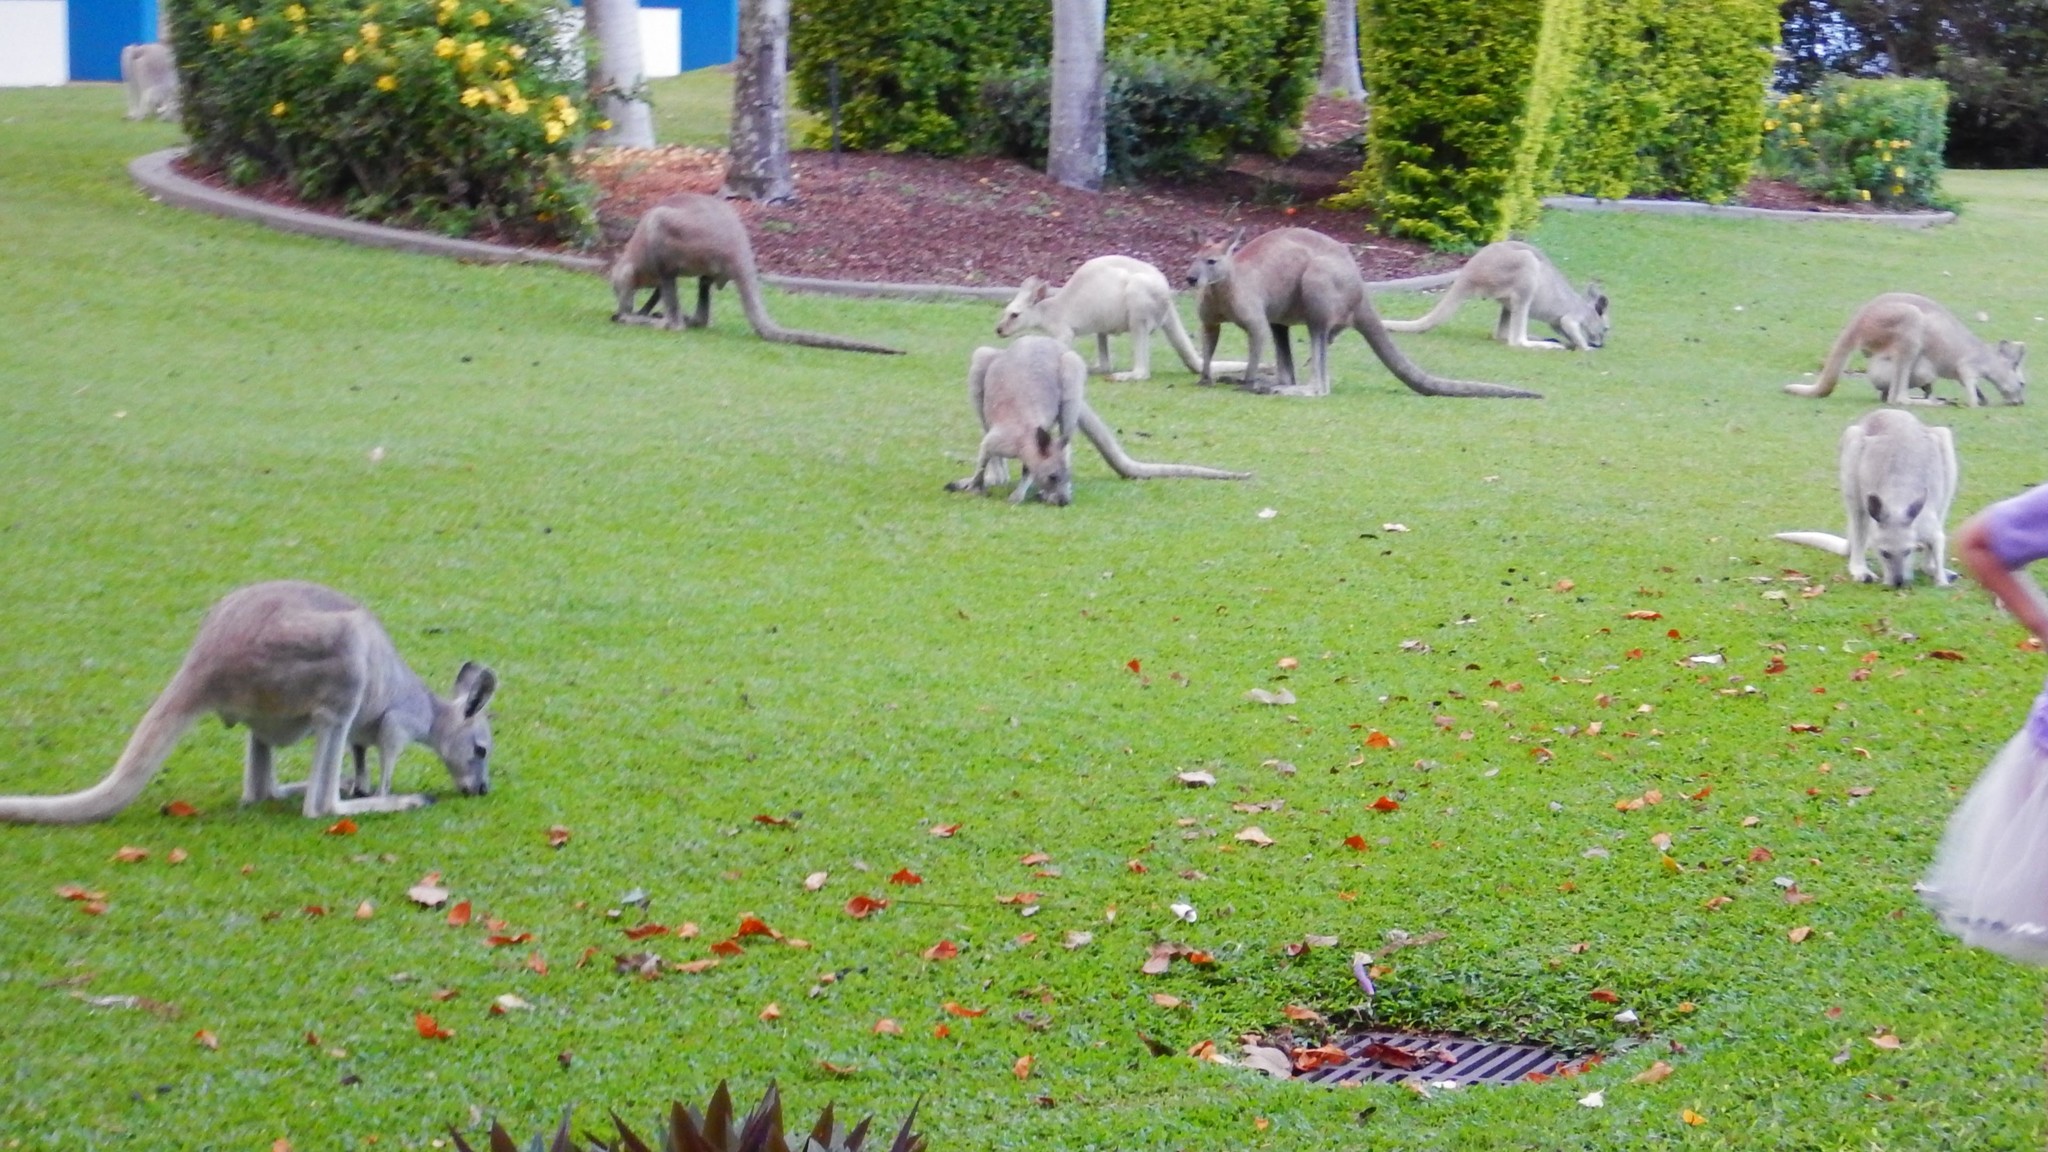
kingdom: Animalia
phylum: Chordata
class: Mammalia
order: Diprotodontia
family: Macropodidae
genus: Macropus
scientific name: Macropus robustus
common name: Eastern wallaroo
